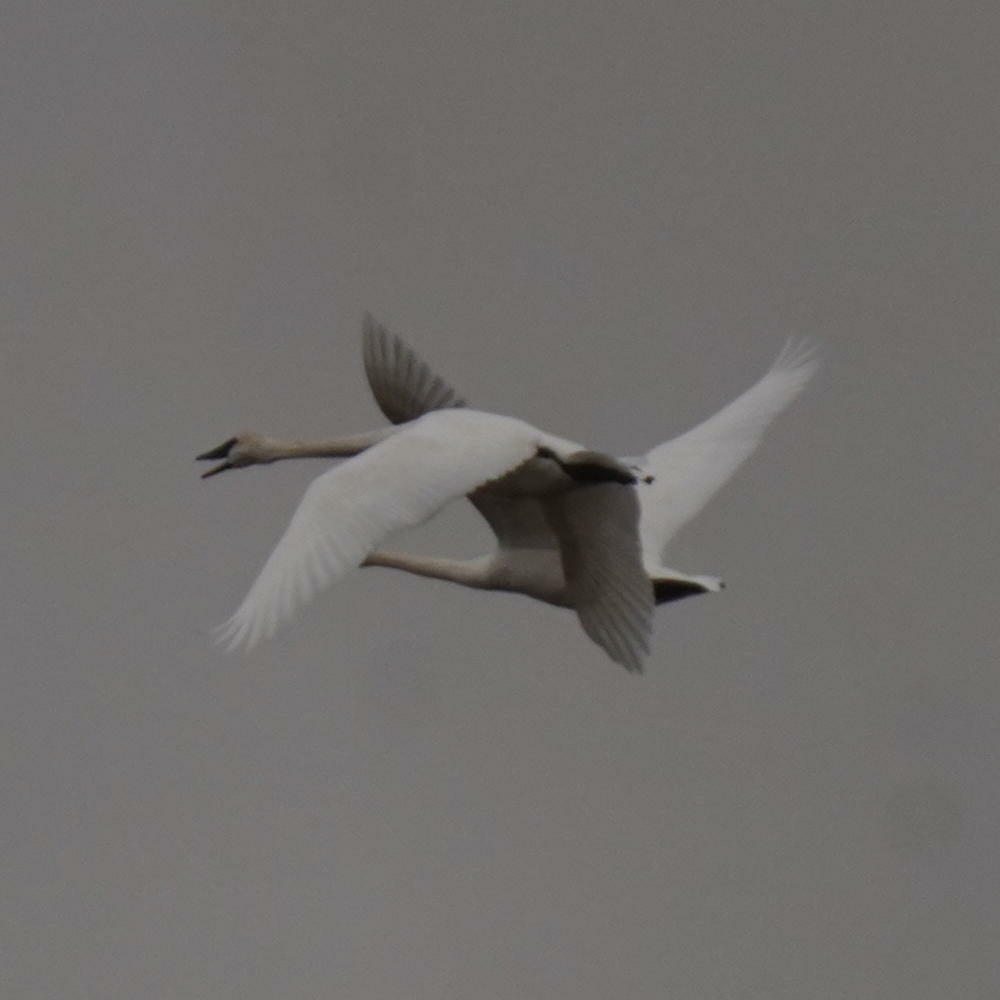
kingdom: Animalia
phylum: Chordata
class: Aves
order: Anseriformes
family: Anatidae
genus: Cygnus
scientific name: Cygnus buccinator
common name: Trumpeter swan
